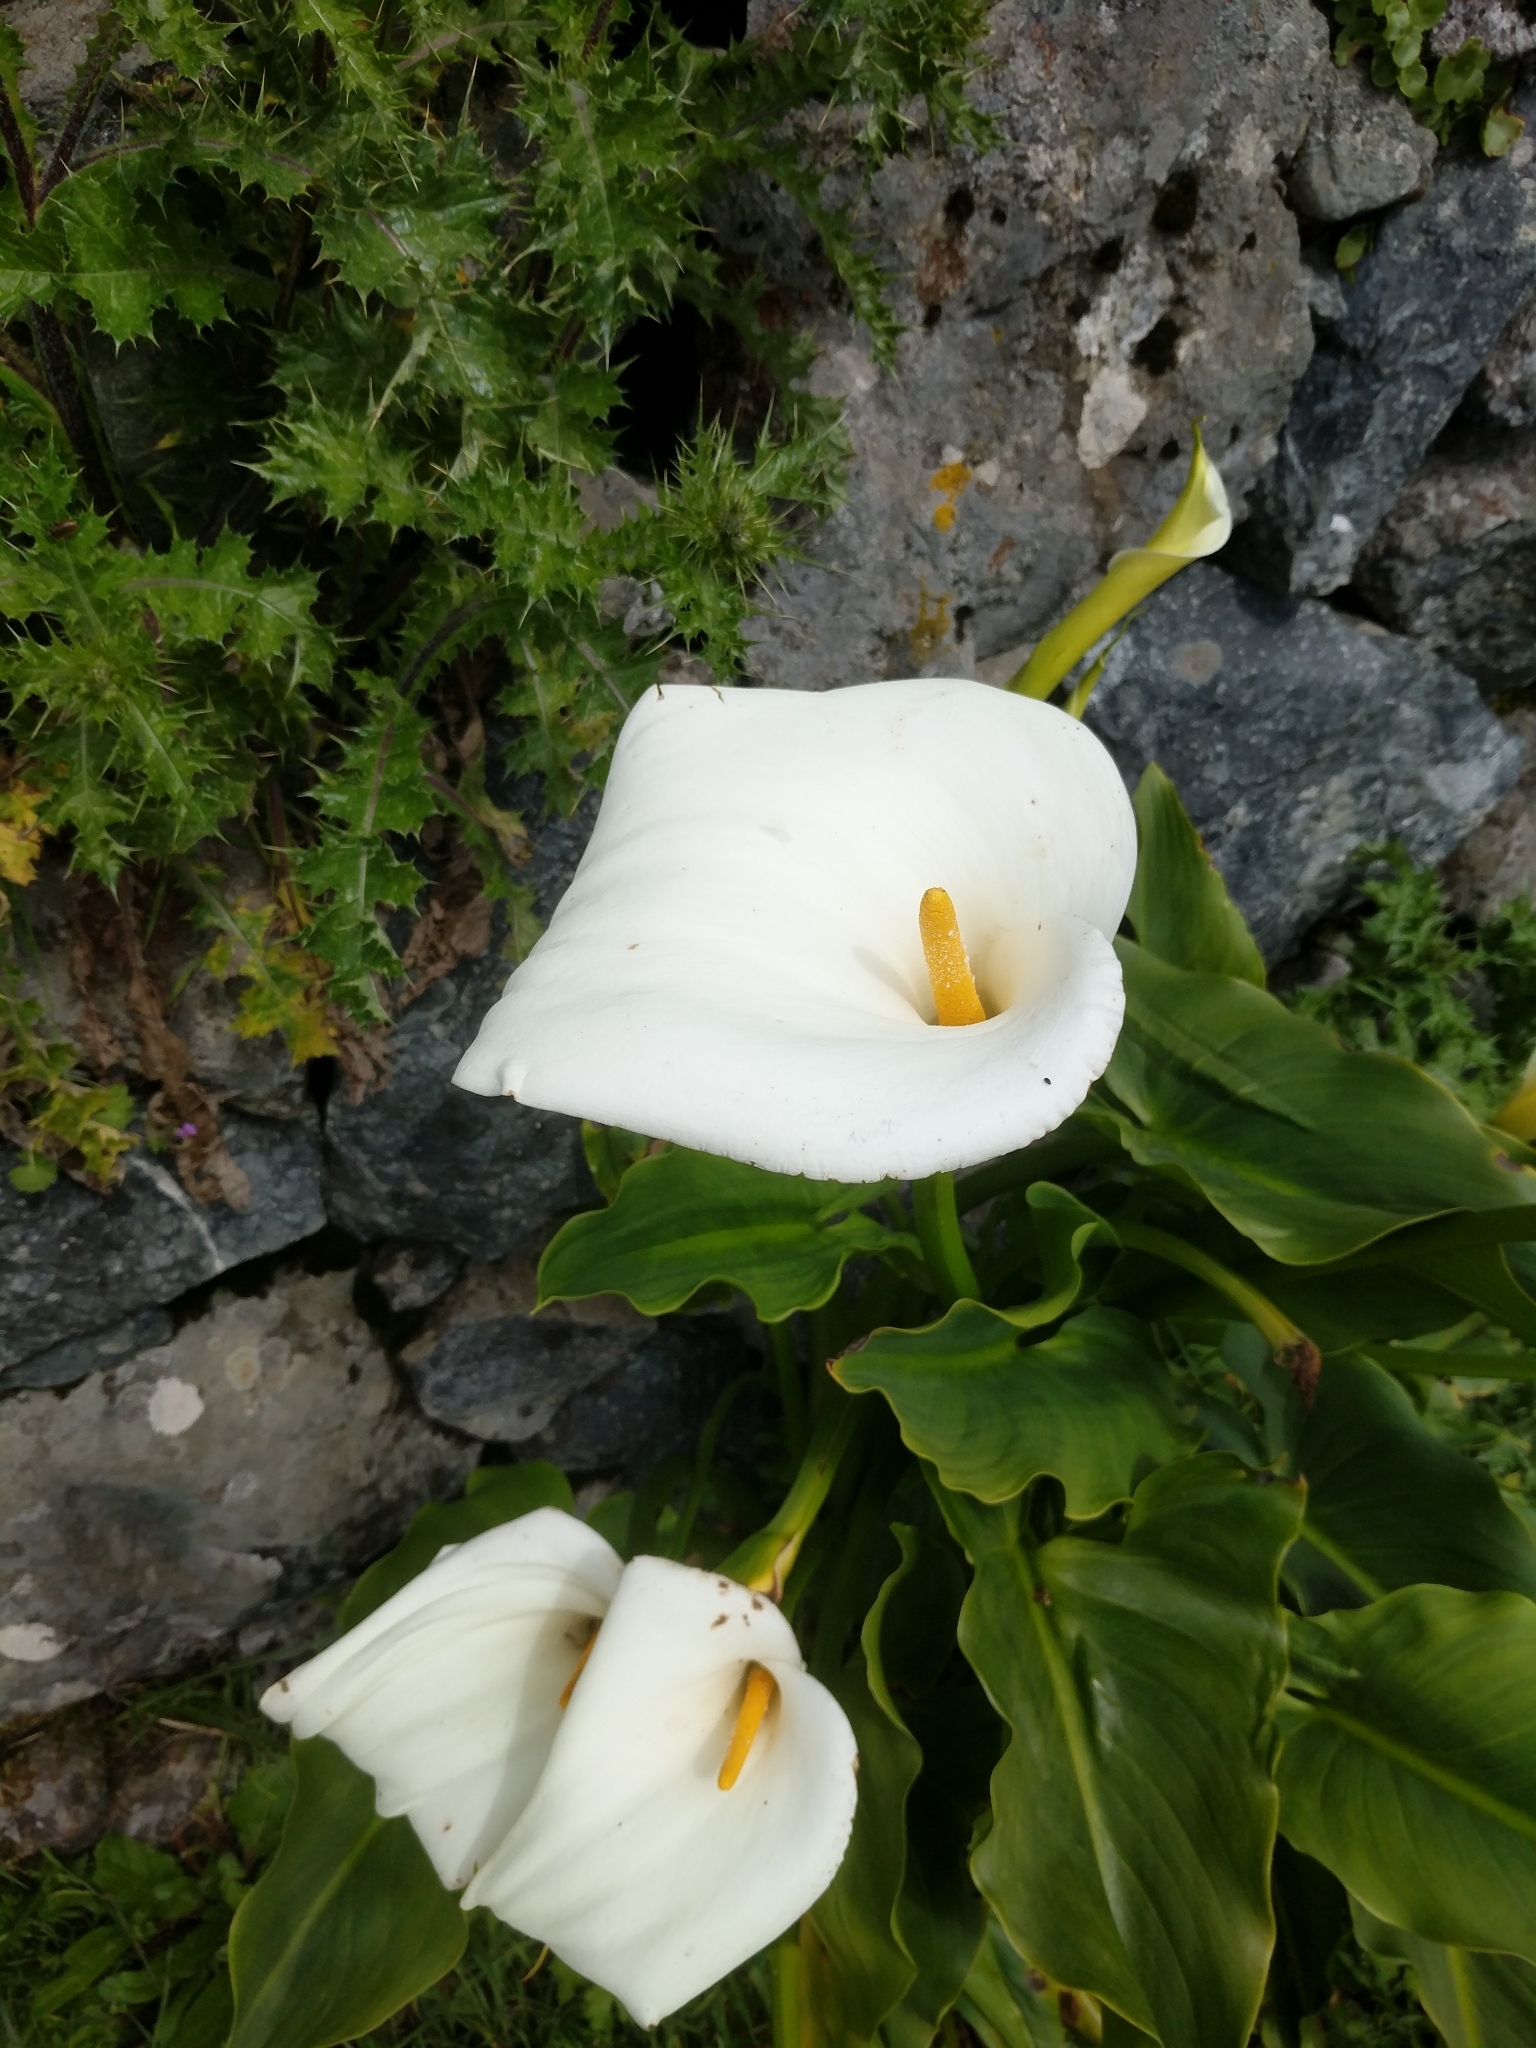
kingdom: Plantae
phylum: Tracheophyta
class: Liliopsida
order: Alismatales
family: Araceae
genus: Zantedeschia
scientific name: Zantedeschia aethiopica
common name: Altar-lily
